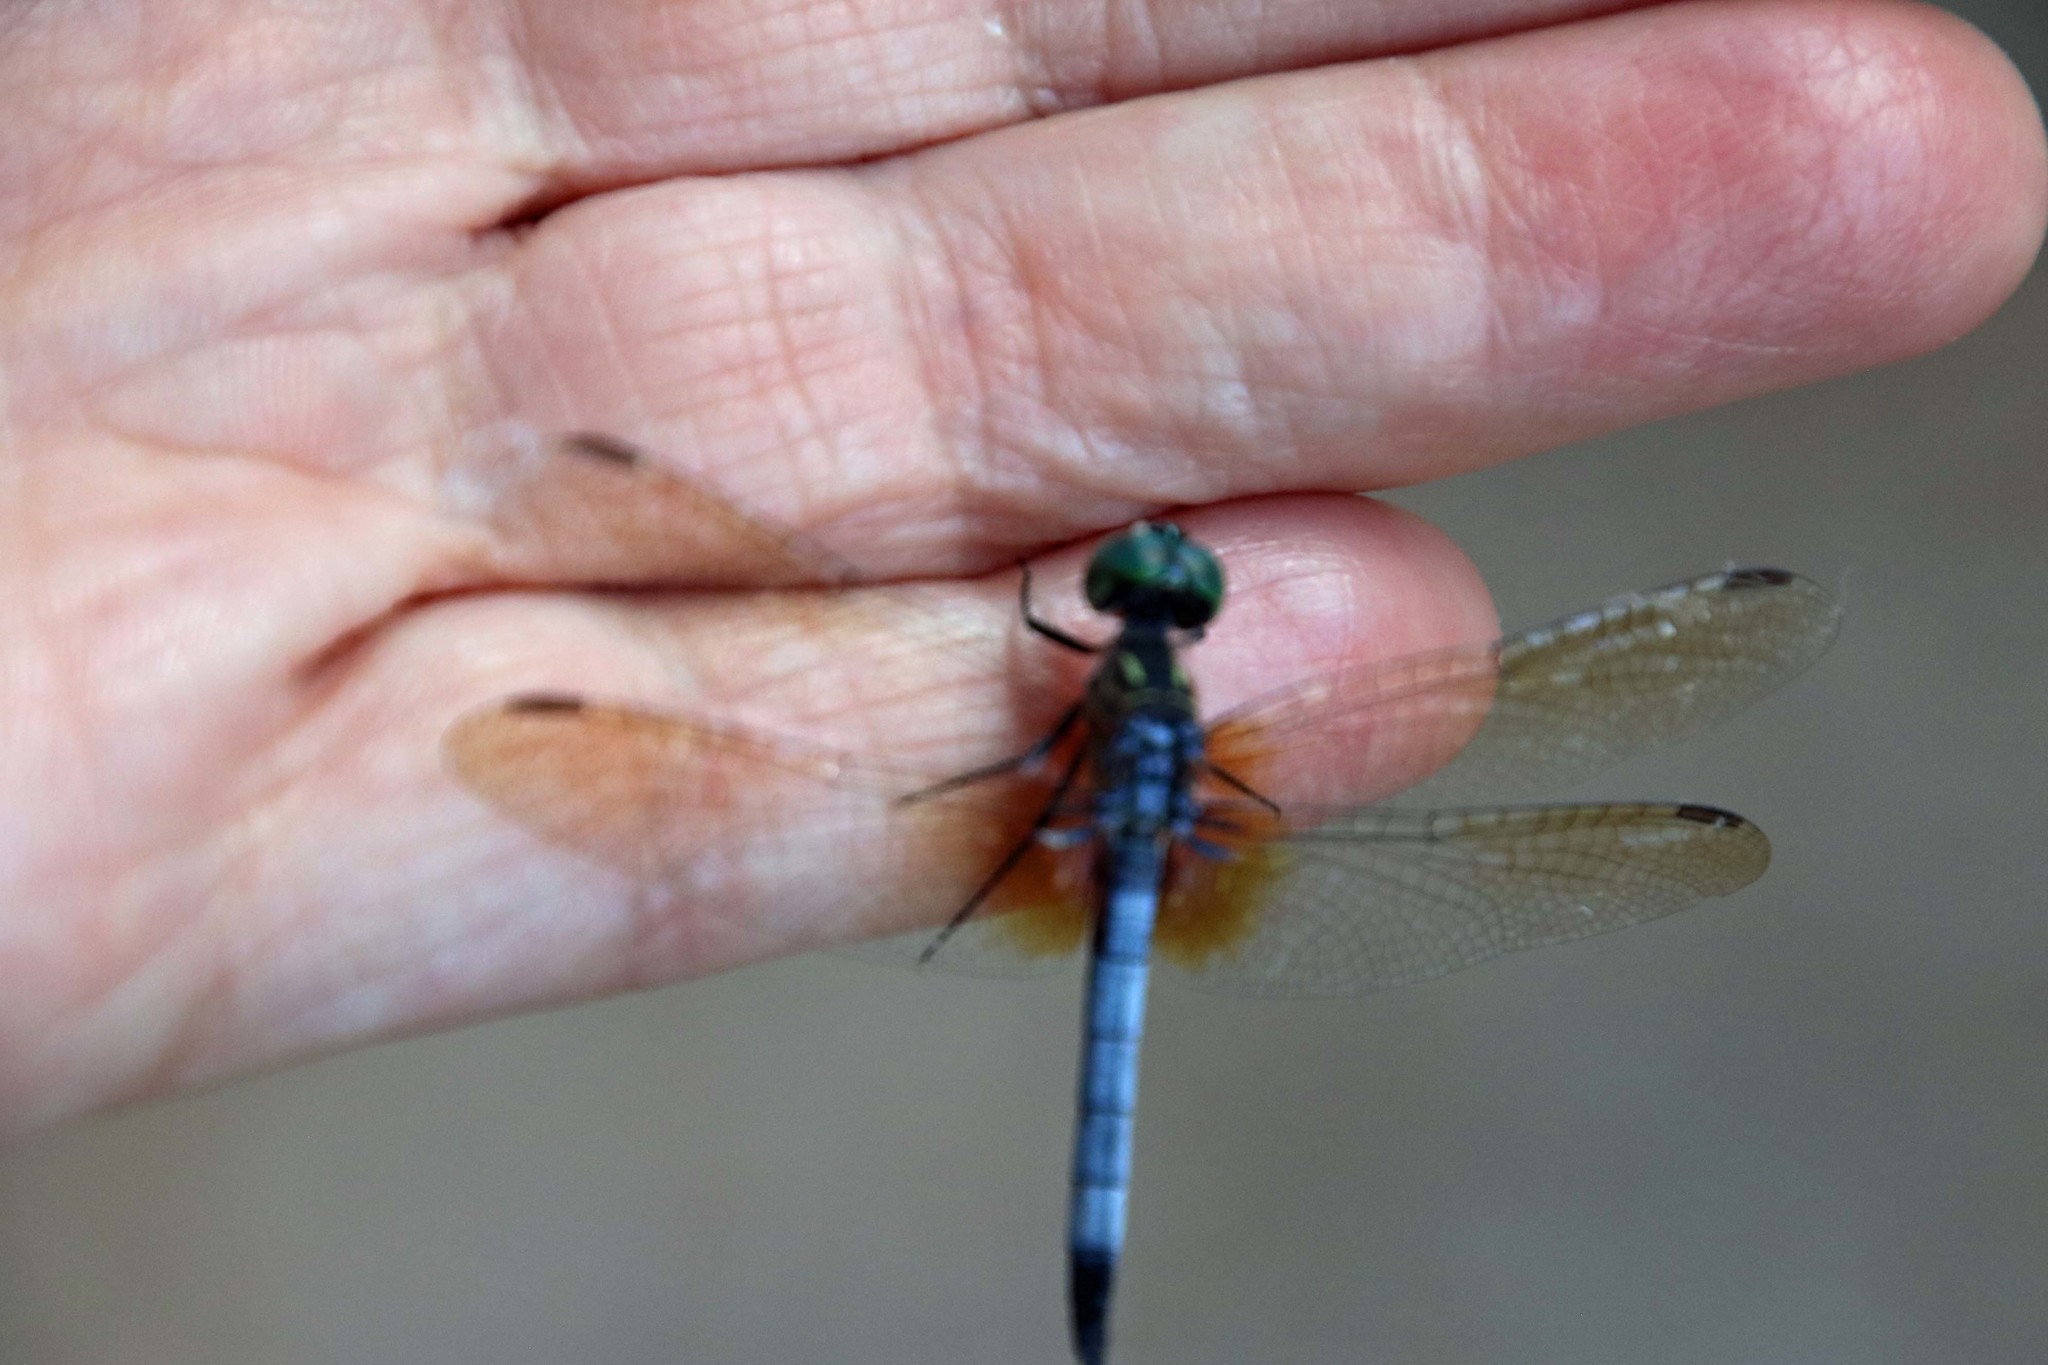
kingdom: Animalia
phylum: Arthropoda
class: Insecta
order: Odonata
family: Libellulidae
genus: Pachydiplax
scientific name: Pachydiplax longipennis
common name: Blue dasher
